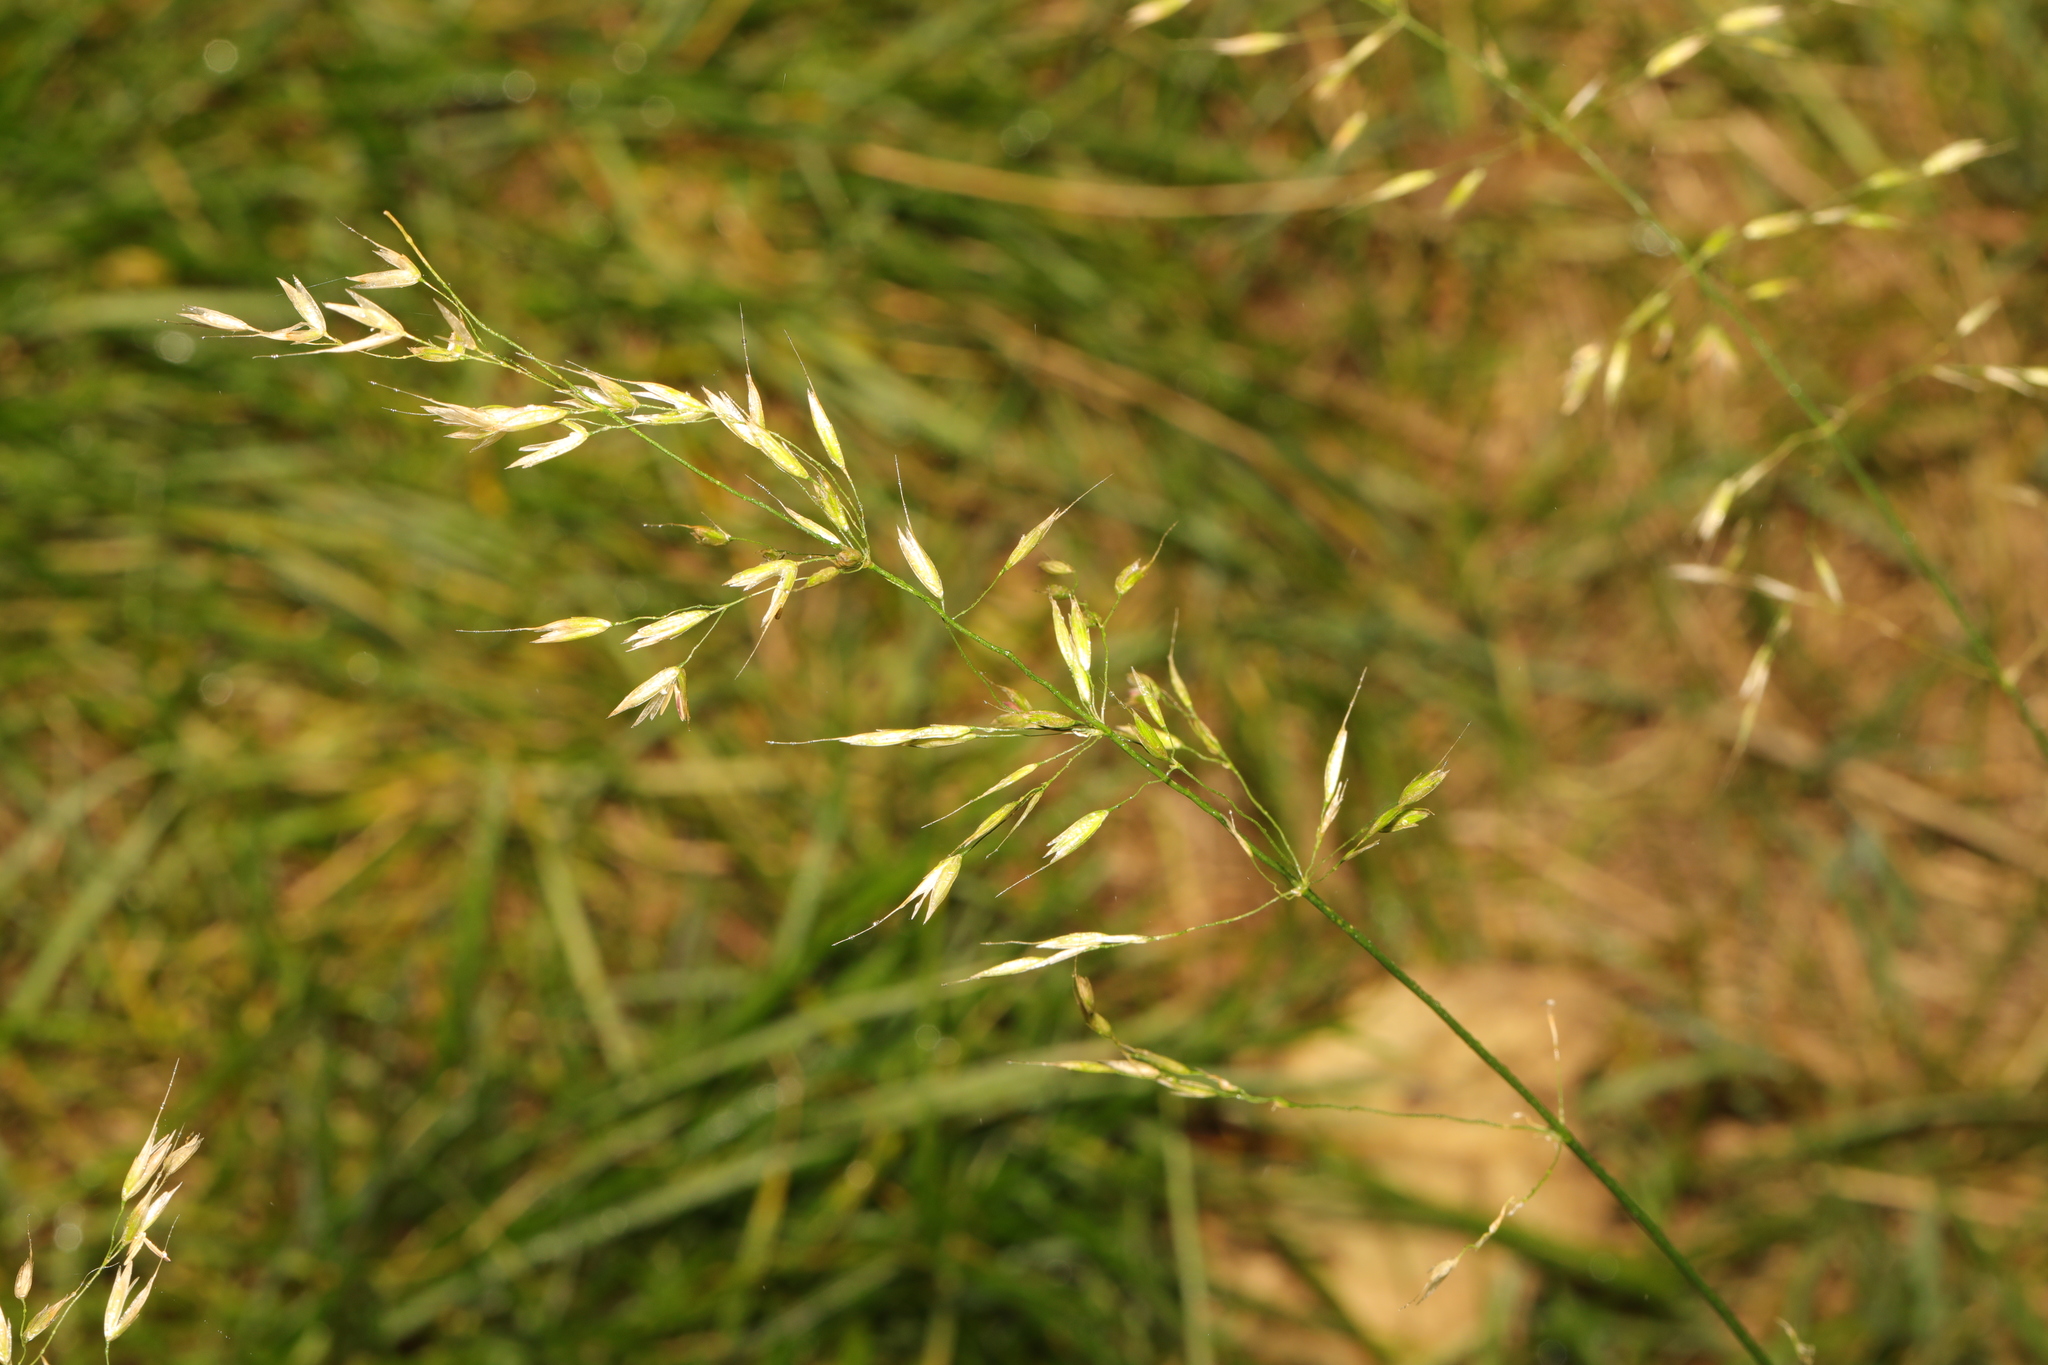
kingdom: Plantae
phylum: Tracheophyta
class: Liliopsida
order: Poales
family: Poaceae
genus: Arrhenatherum
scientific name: Arrhenatherum elatius
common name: Tall oatgrass
